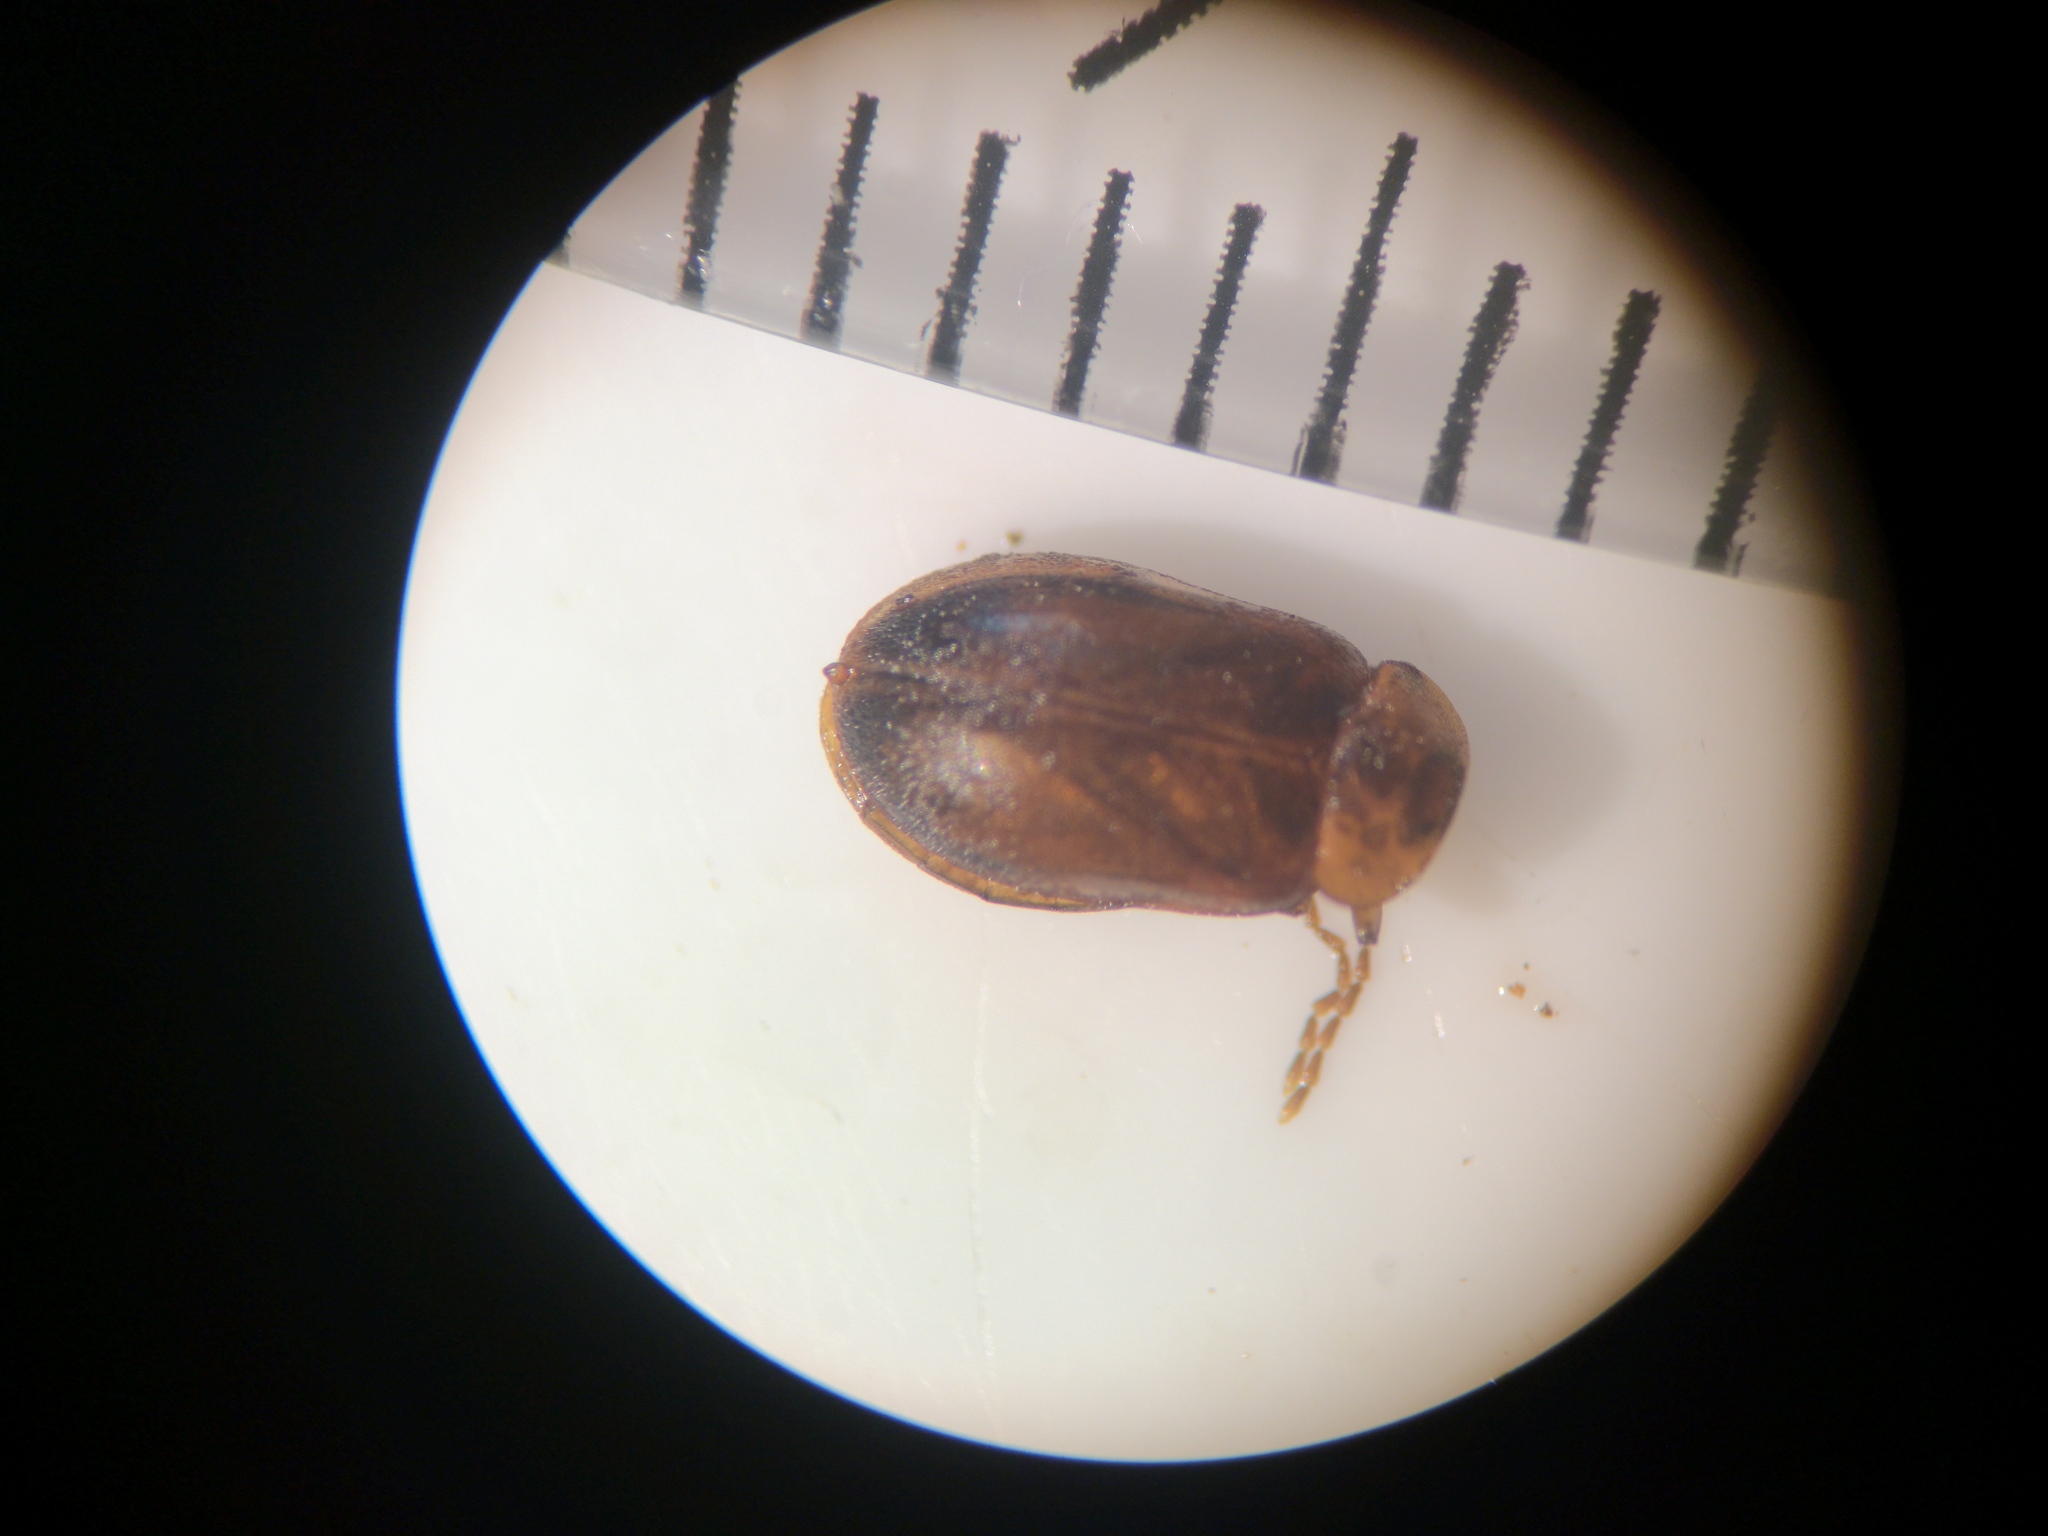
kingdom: Animalia
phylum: Arthropoda
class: Insecta
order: Coleoptera
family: Scirtidae
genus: Microcara
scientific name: Microcara testacea
